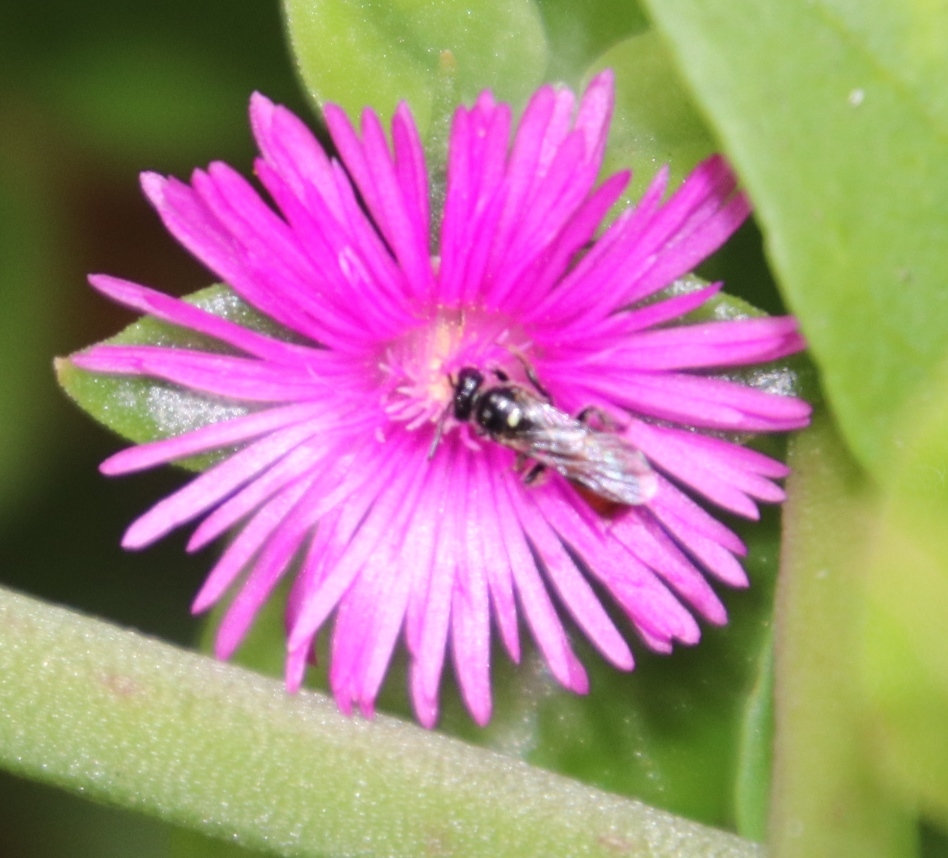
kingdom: Plantae
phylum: Tracheophyta
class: Magnoliopsida
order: Caryophyllales
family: Aizoaceae
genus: Mesembryanthemum
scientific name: Mesembryanthemum cordifolium
